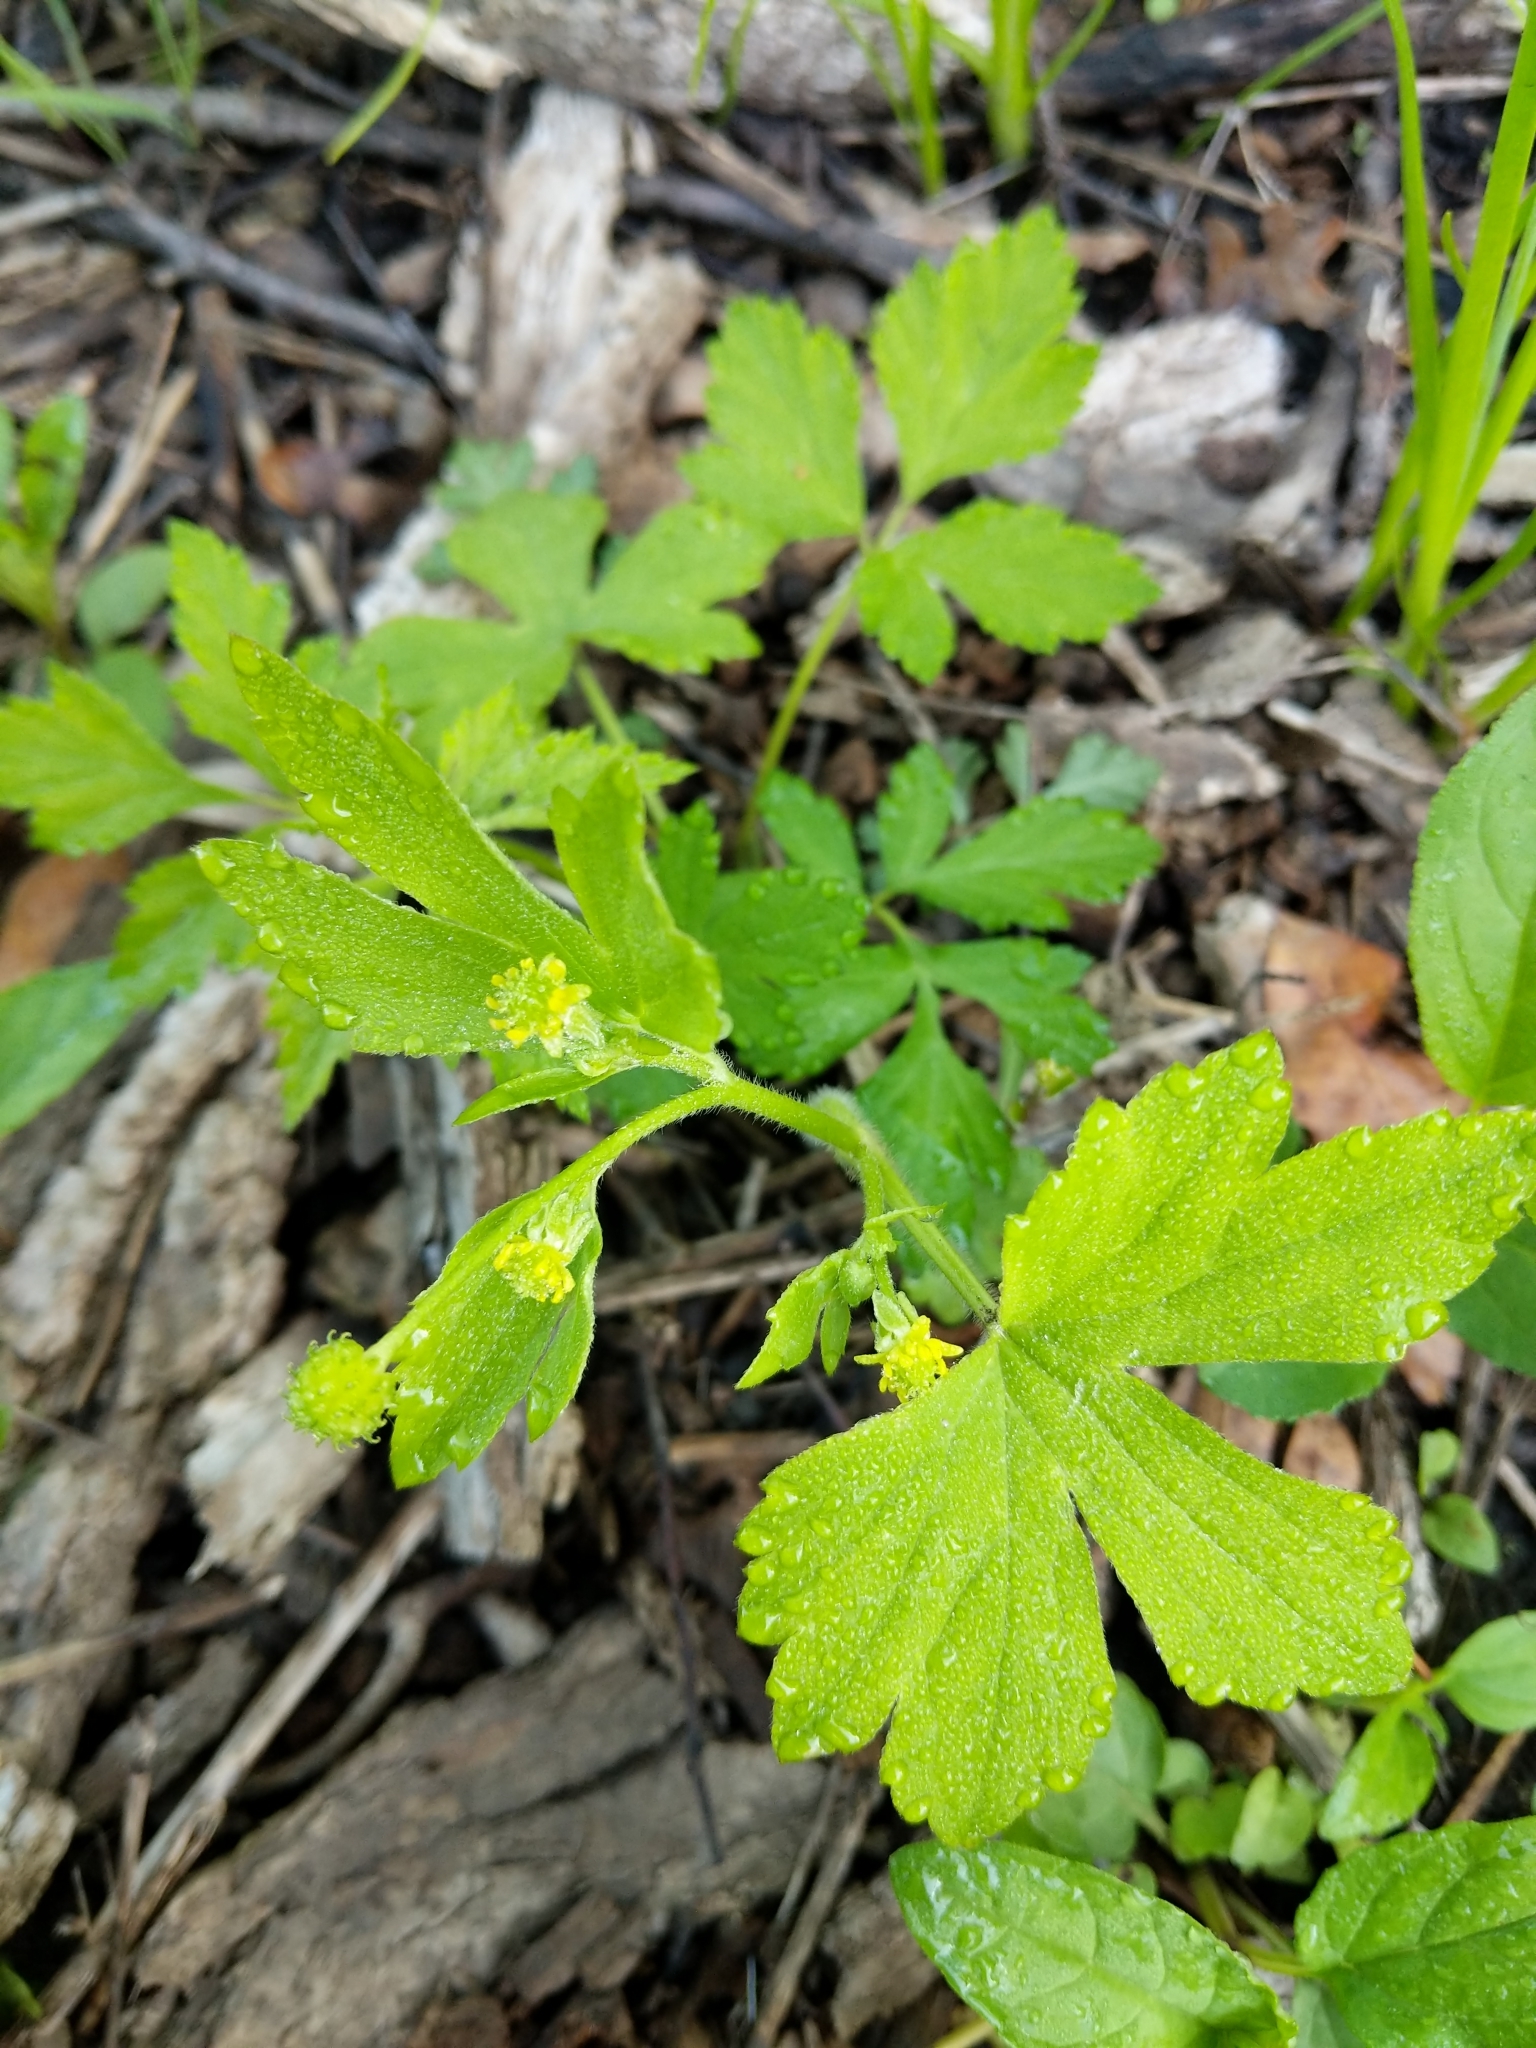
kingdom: Plantae
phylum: Tracheophyta
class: Magnoliopsida
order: Ranunculales
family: Ranunculaceae
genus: Ranunculus
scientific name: Ranunculus recurvatus
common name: Blisterwort
